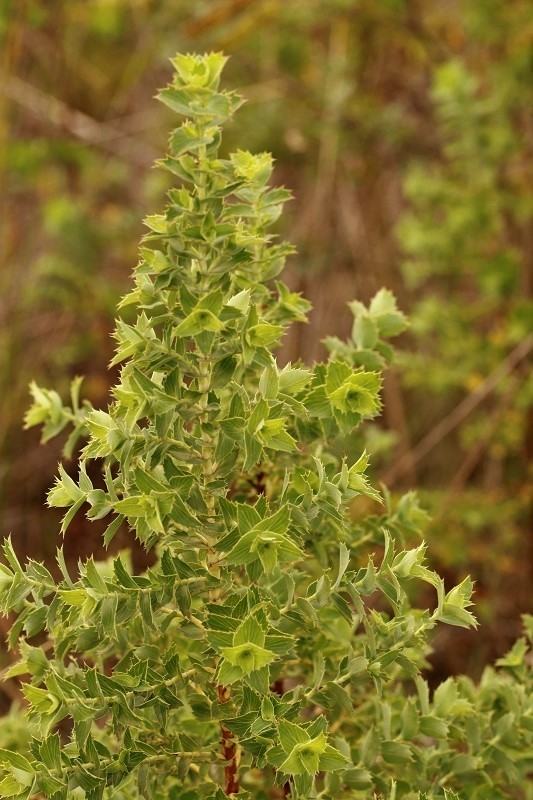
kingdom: Plantae
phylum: Tracheophyta
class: Magnoliopsida
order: Rosales
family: Rosaceae
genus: Cliffortia
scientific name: Cliffortia ilicifolia
